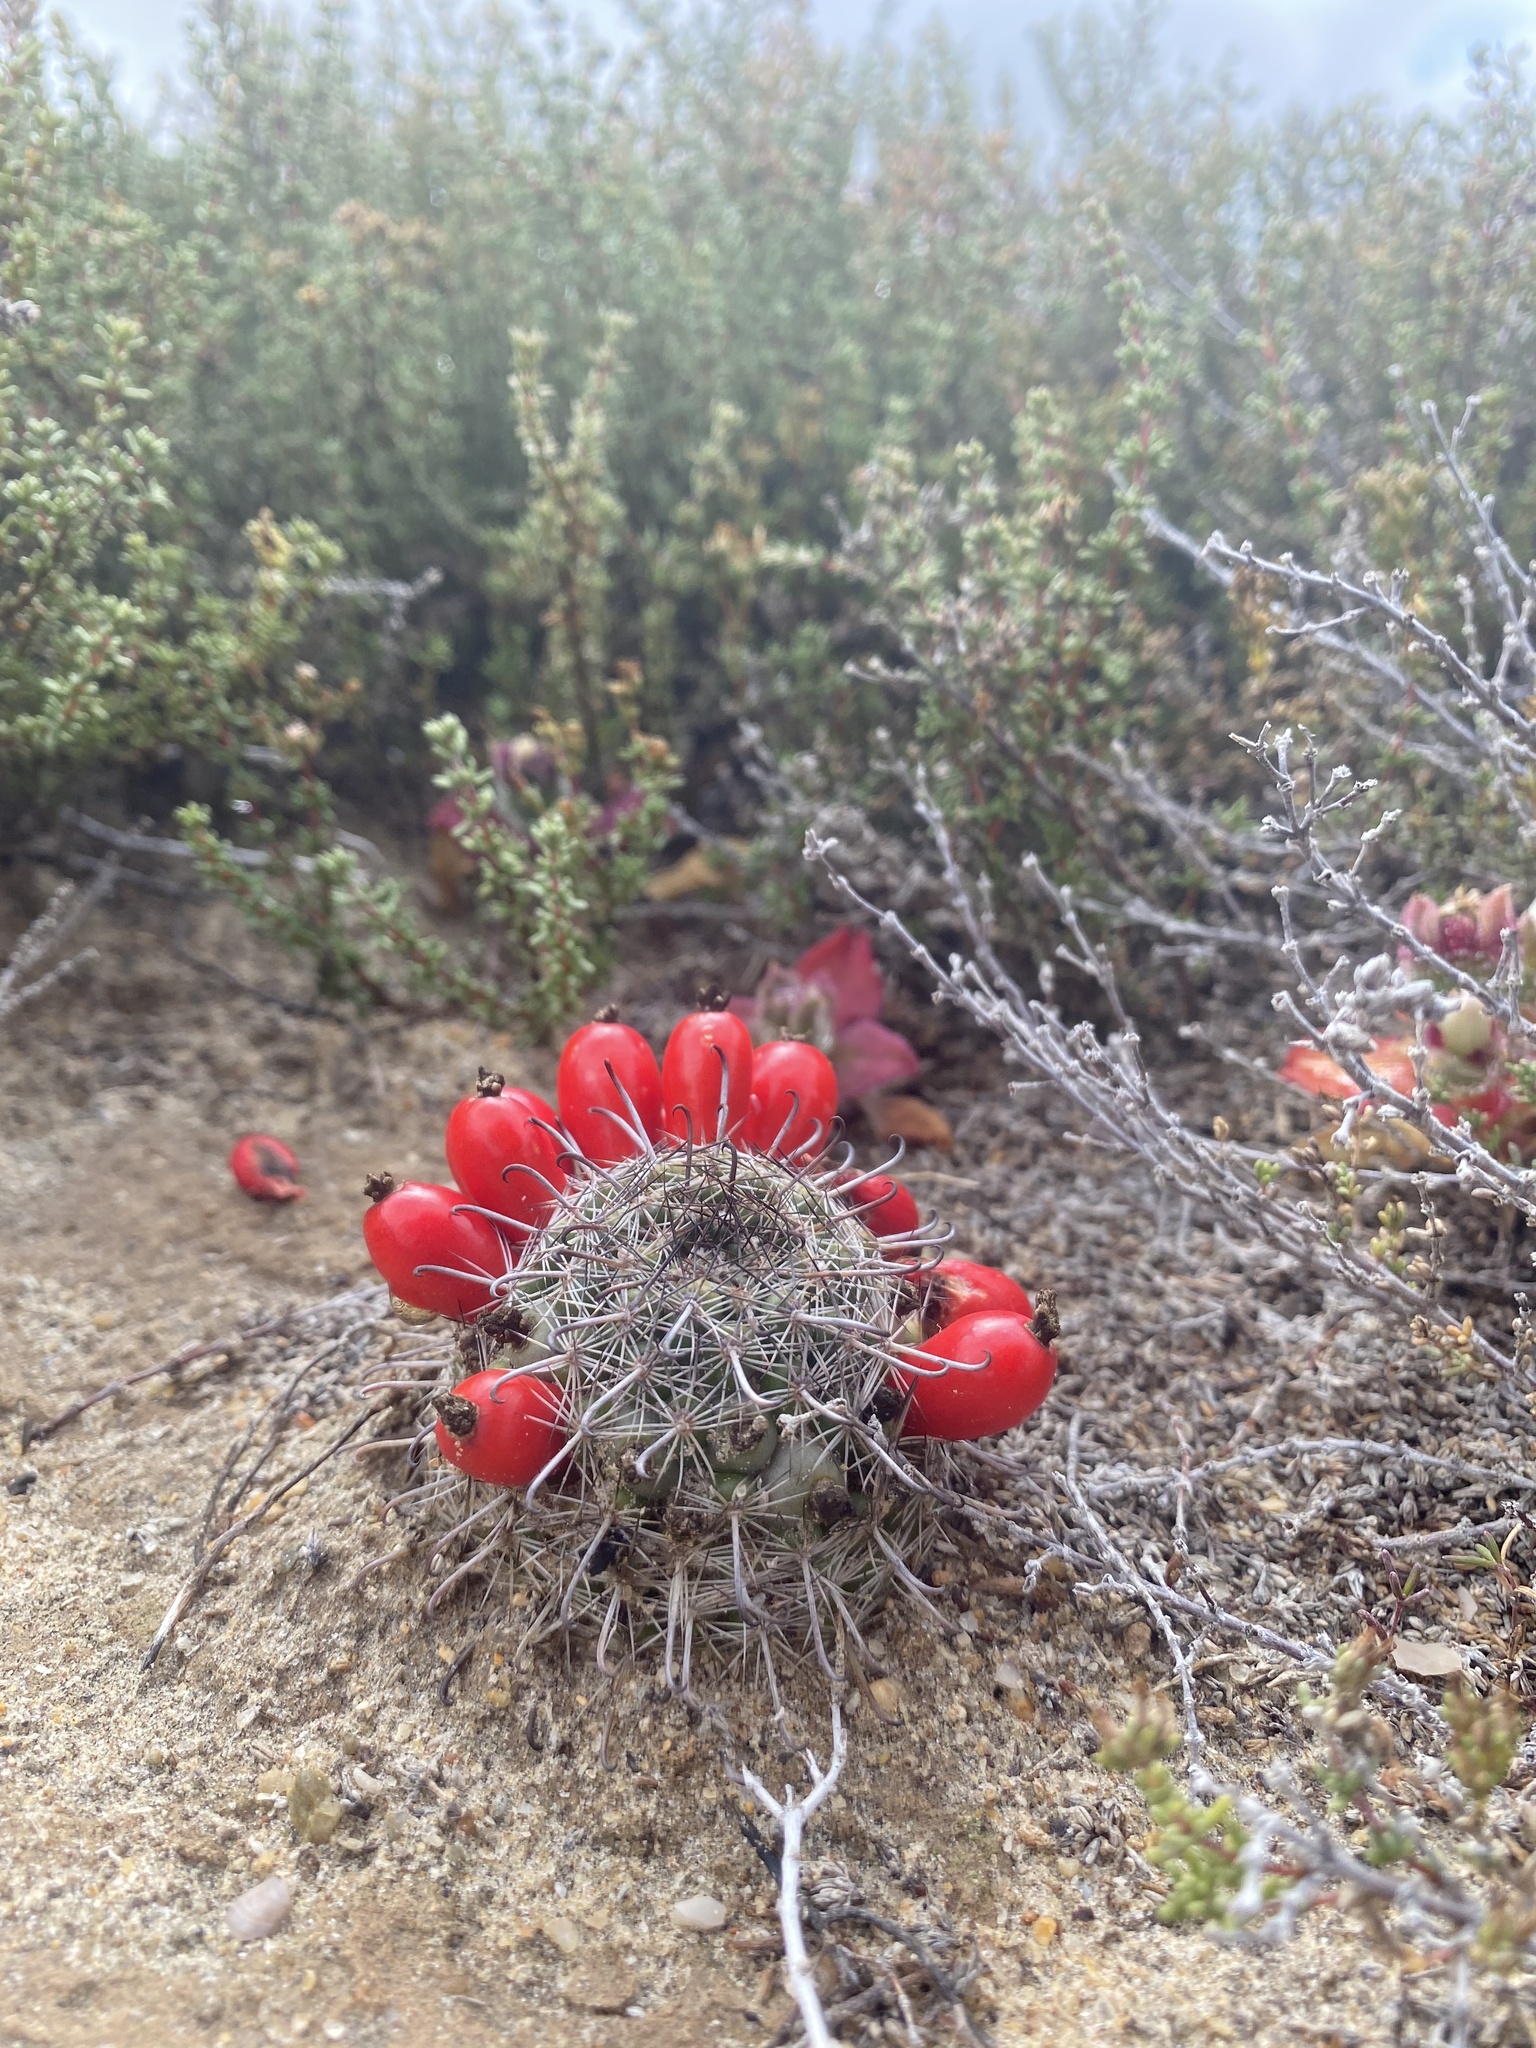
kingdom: Plantae
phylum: Tracheophyta
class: Magnoliopsida
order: Caryophyllales
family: Cactaceae
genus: Cochemiea
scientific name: Cochemiea hutchisoniana
